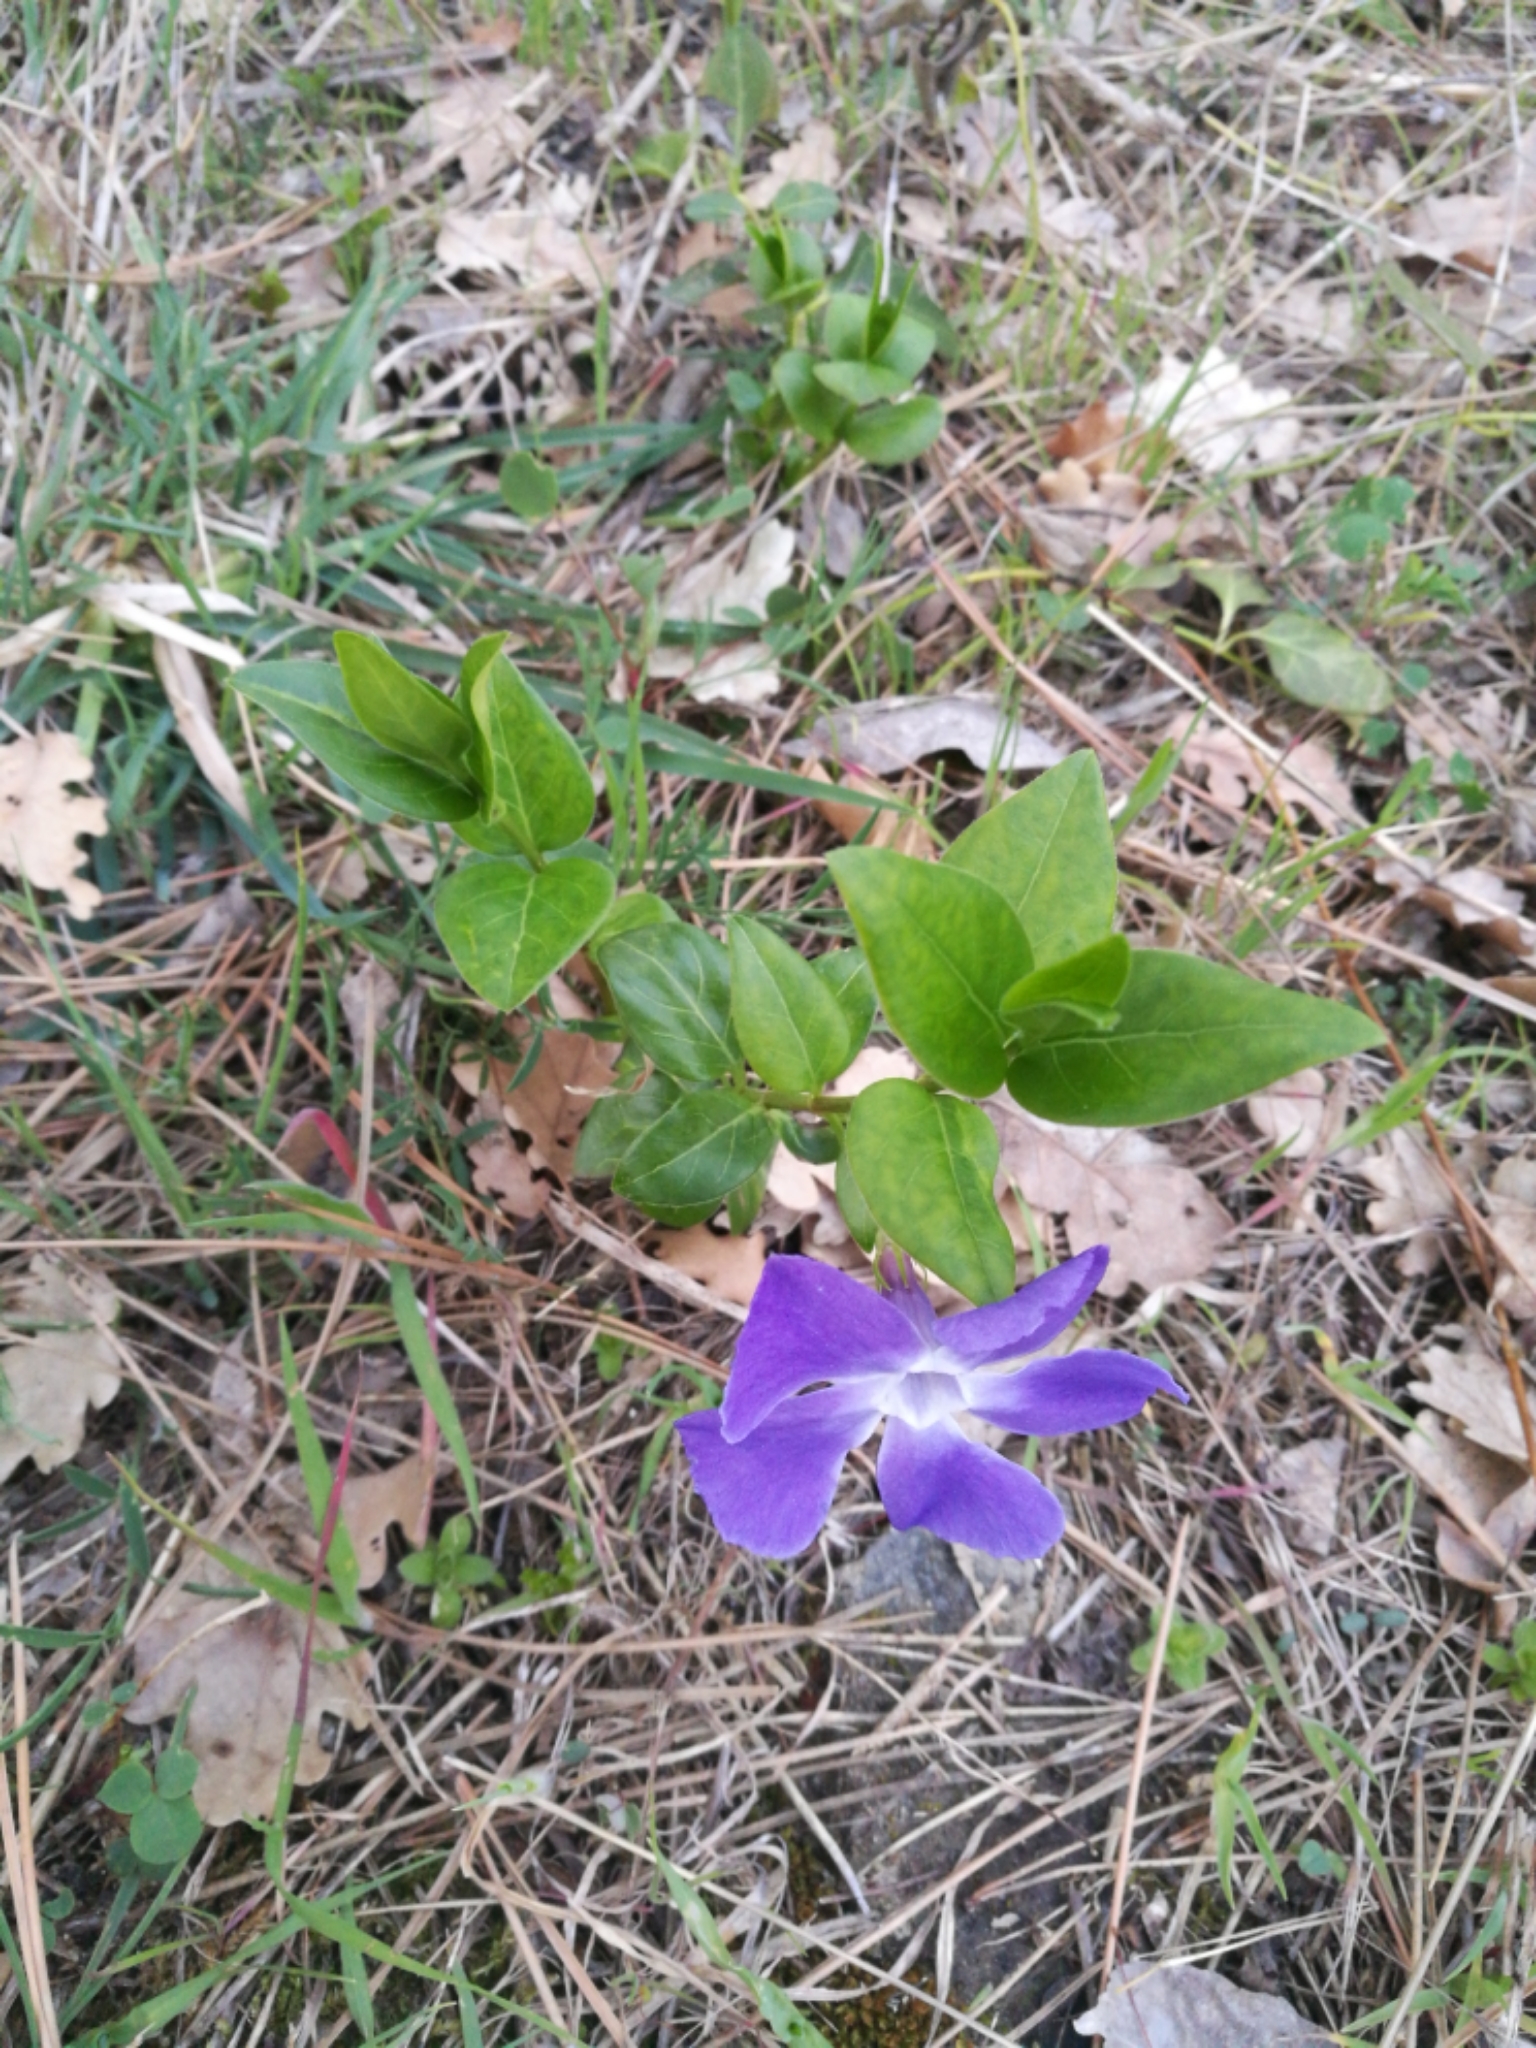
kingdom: Plantae
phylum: Tracheophyta
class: Magnoliopsida
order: Gentianales
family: Apocynaceae
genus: Vinca
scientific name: Vinca major
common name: Greater periwinkle
